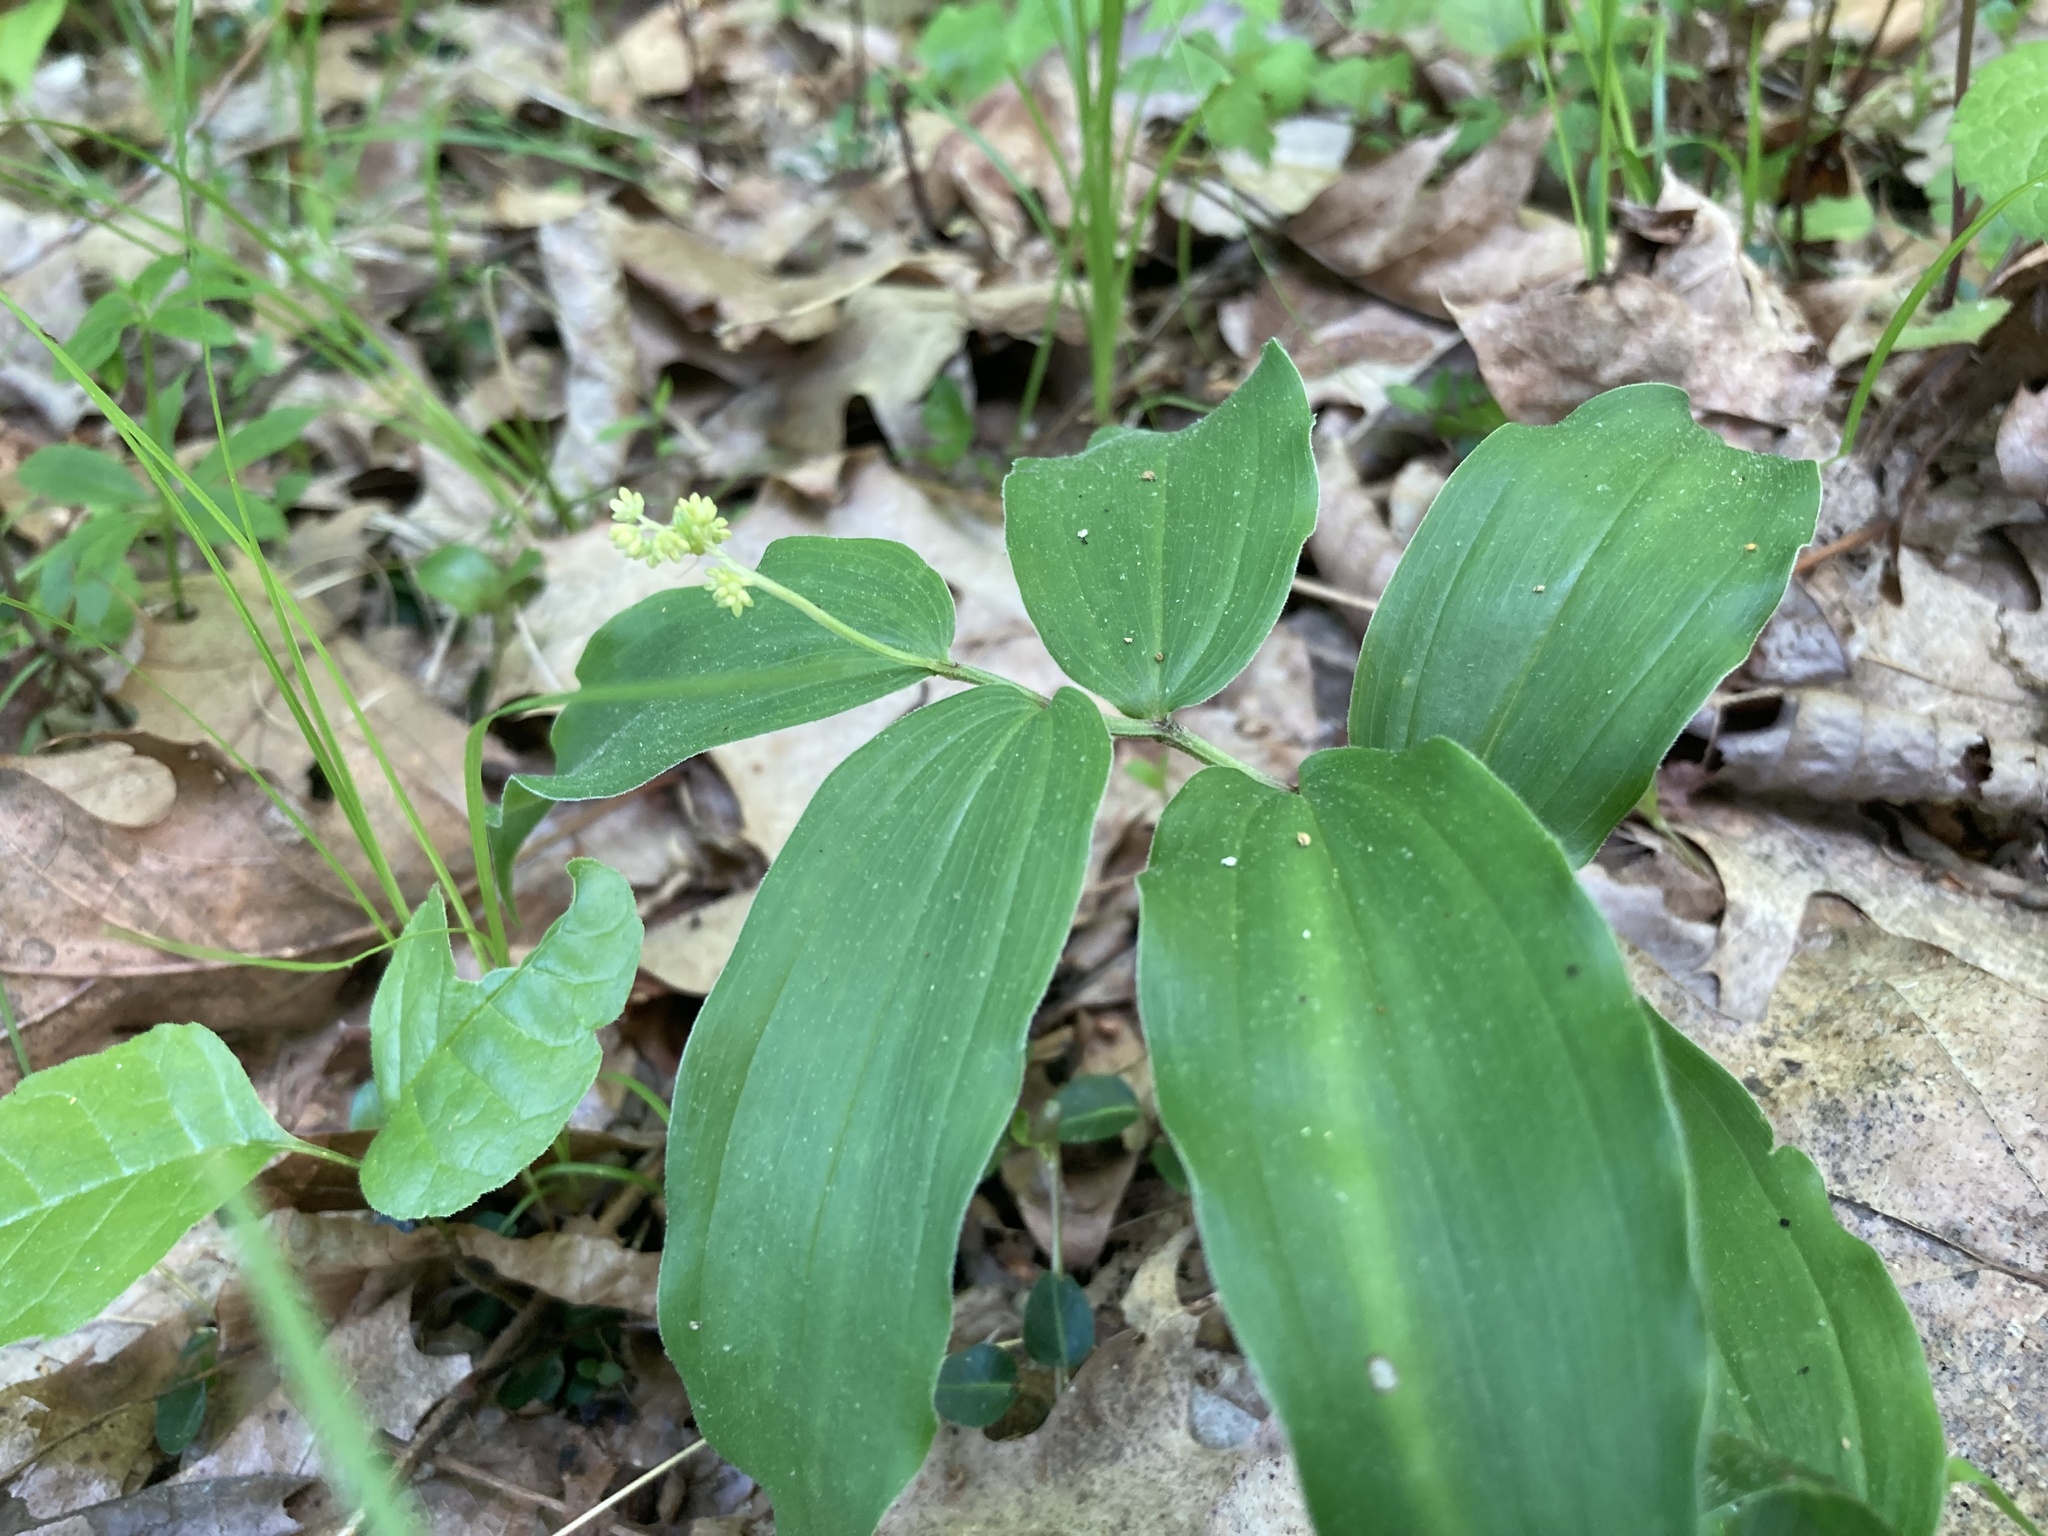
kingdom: Plantae
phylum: Tracheophyta
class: Liliopsida
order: Asparagales
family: Asparagaceae
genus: Maianthemum
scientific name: Maianthemum racemosum
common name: False spikenard
